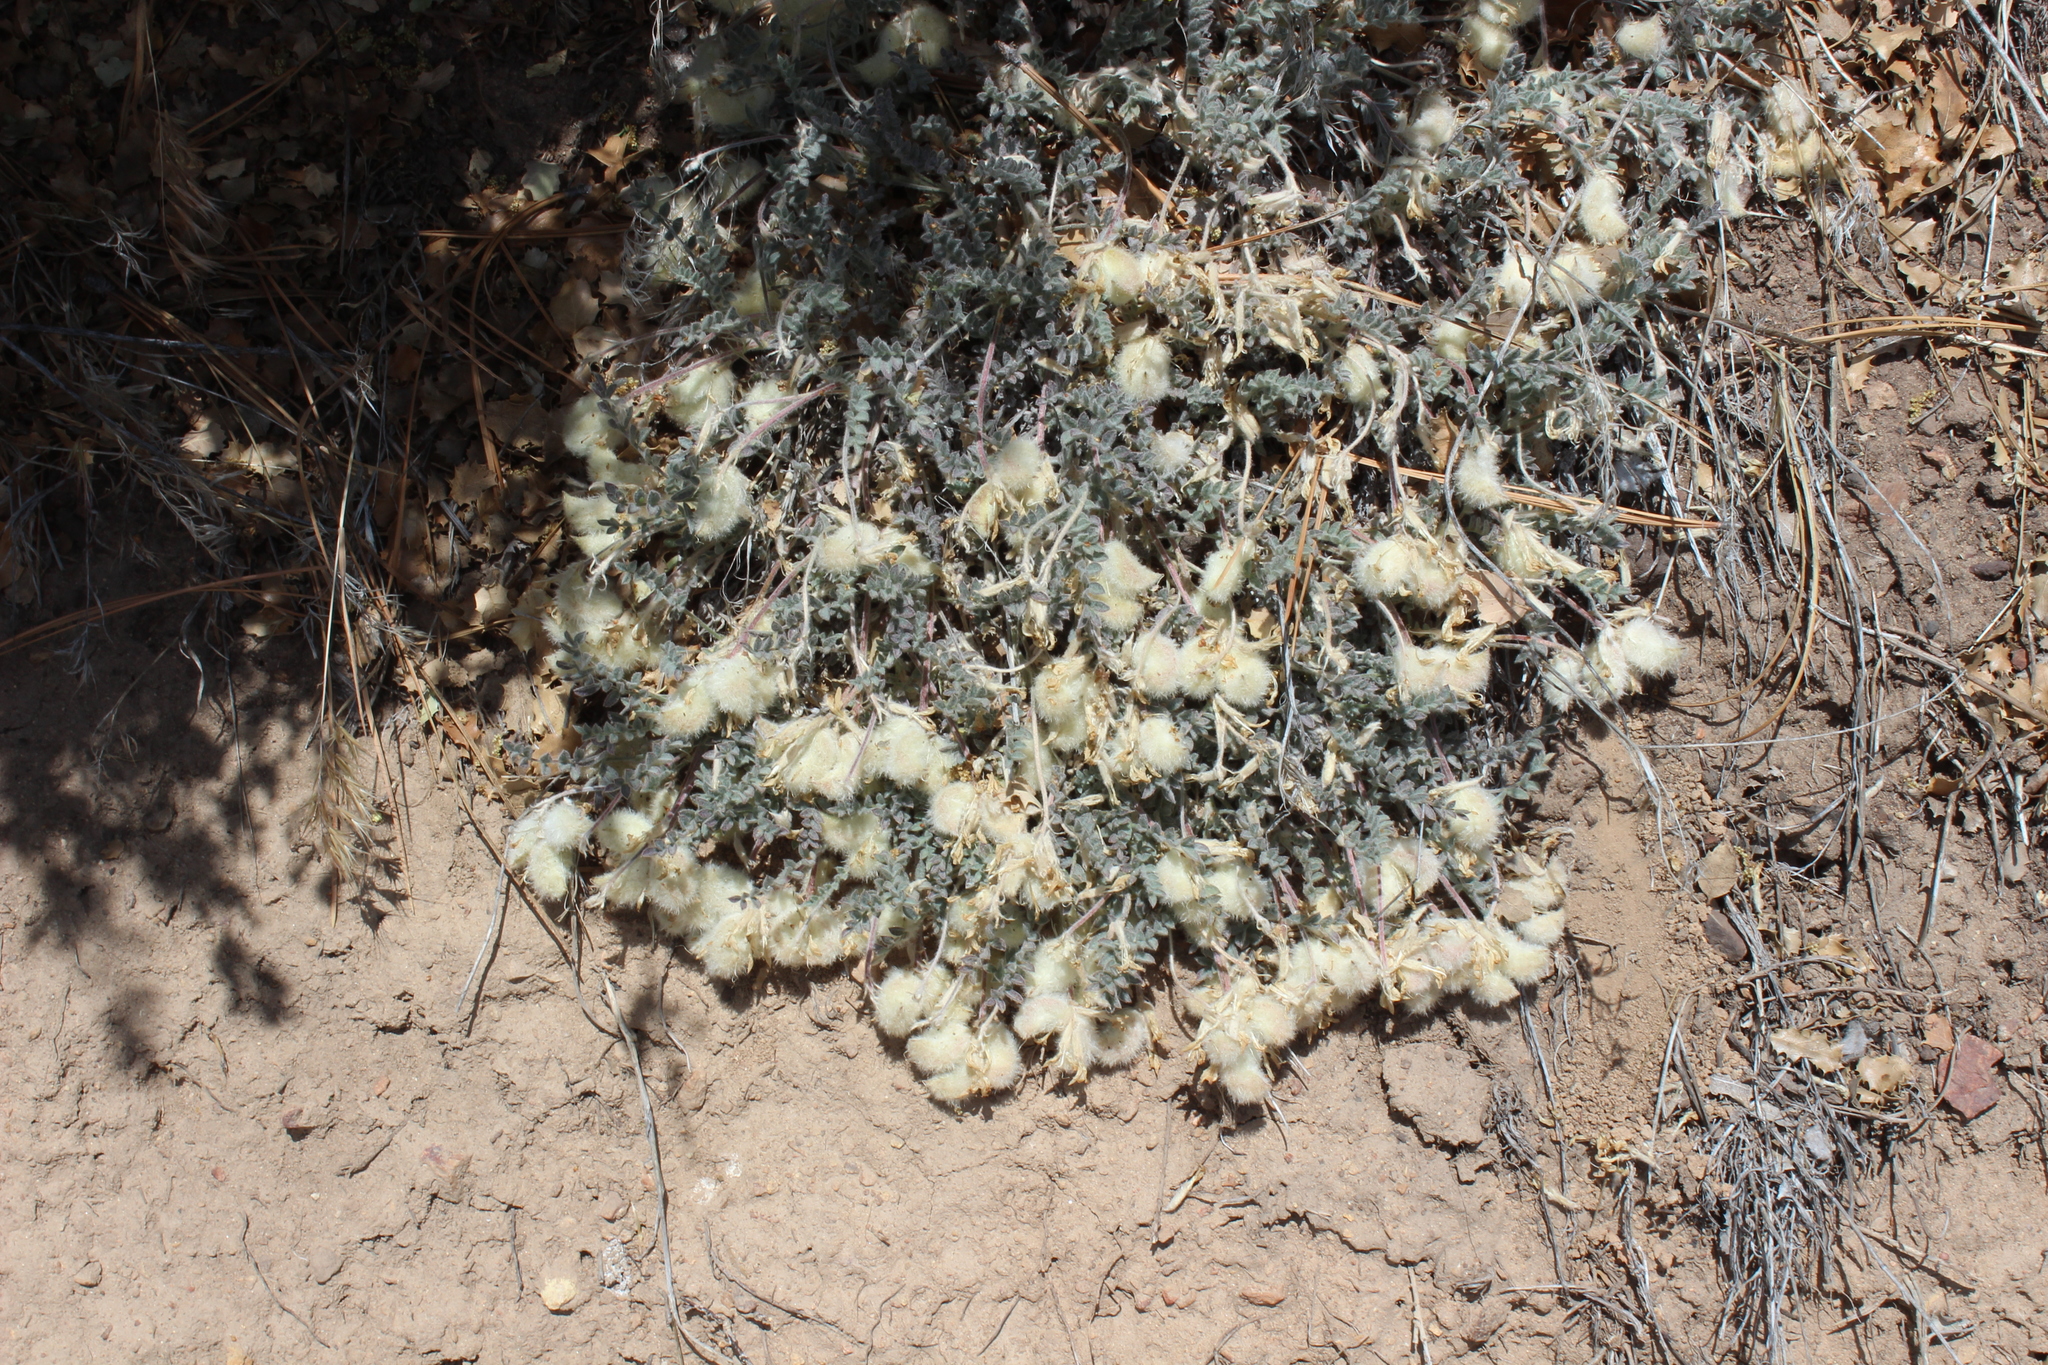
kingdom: Plantae
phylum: Tracheophyta
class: Magnoliopsida
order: Fabales
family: Fabaceae
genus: Astragalus
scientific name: Astragalus purshii
